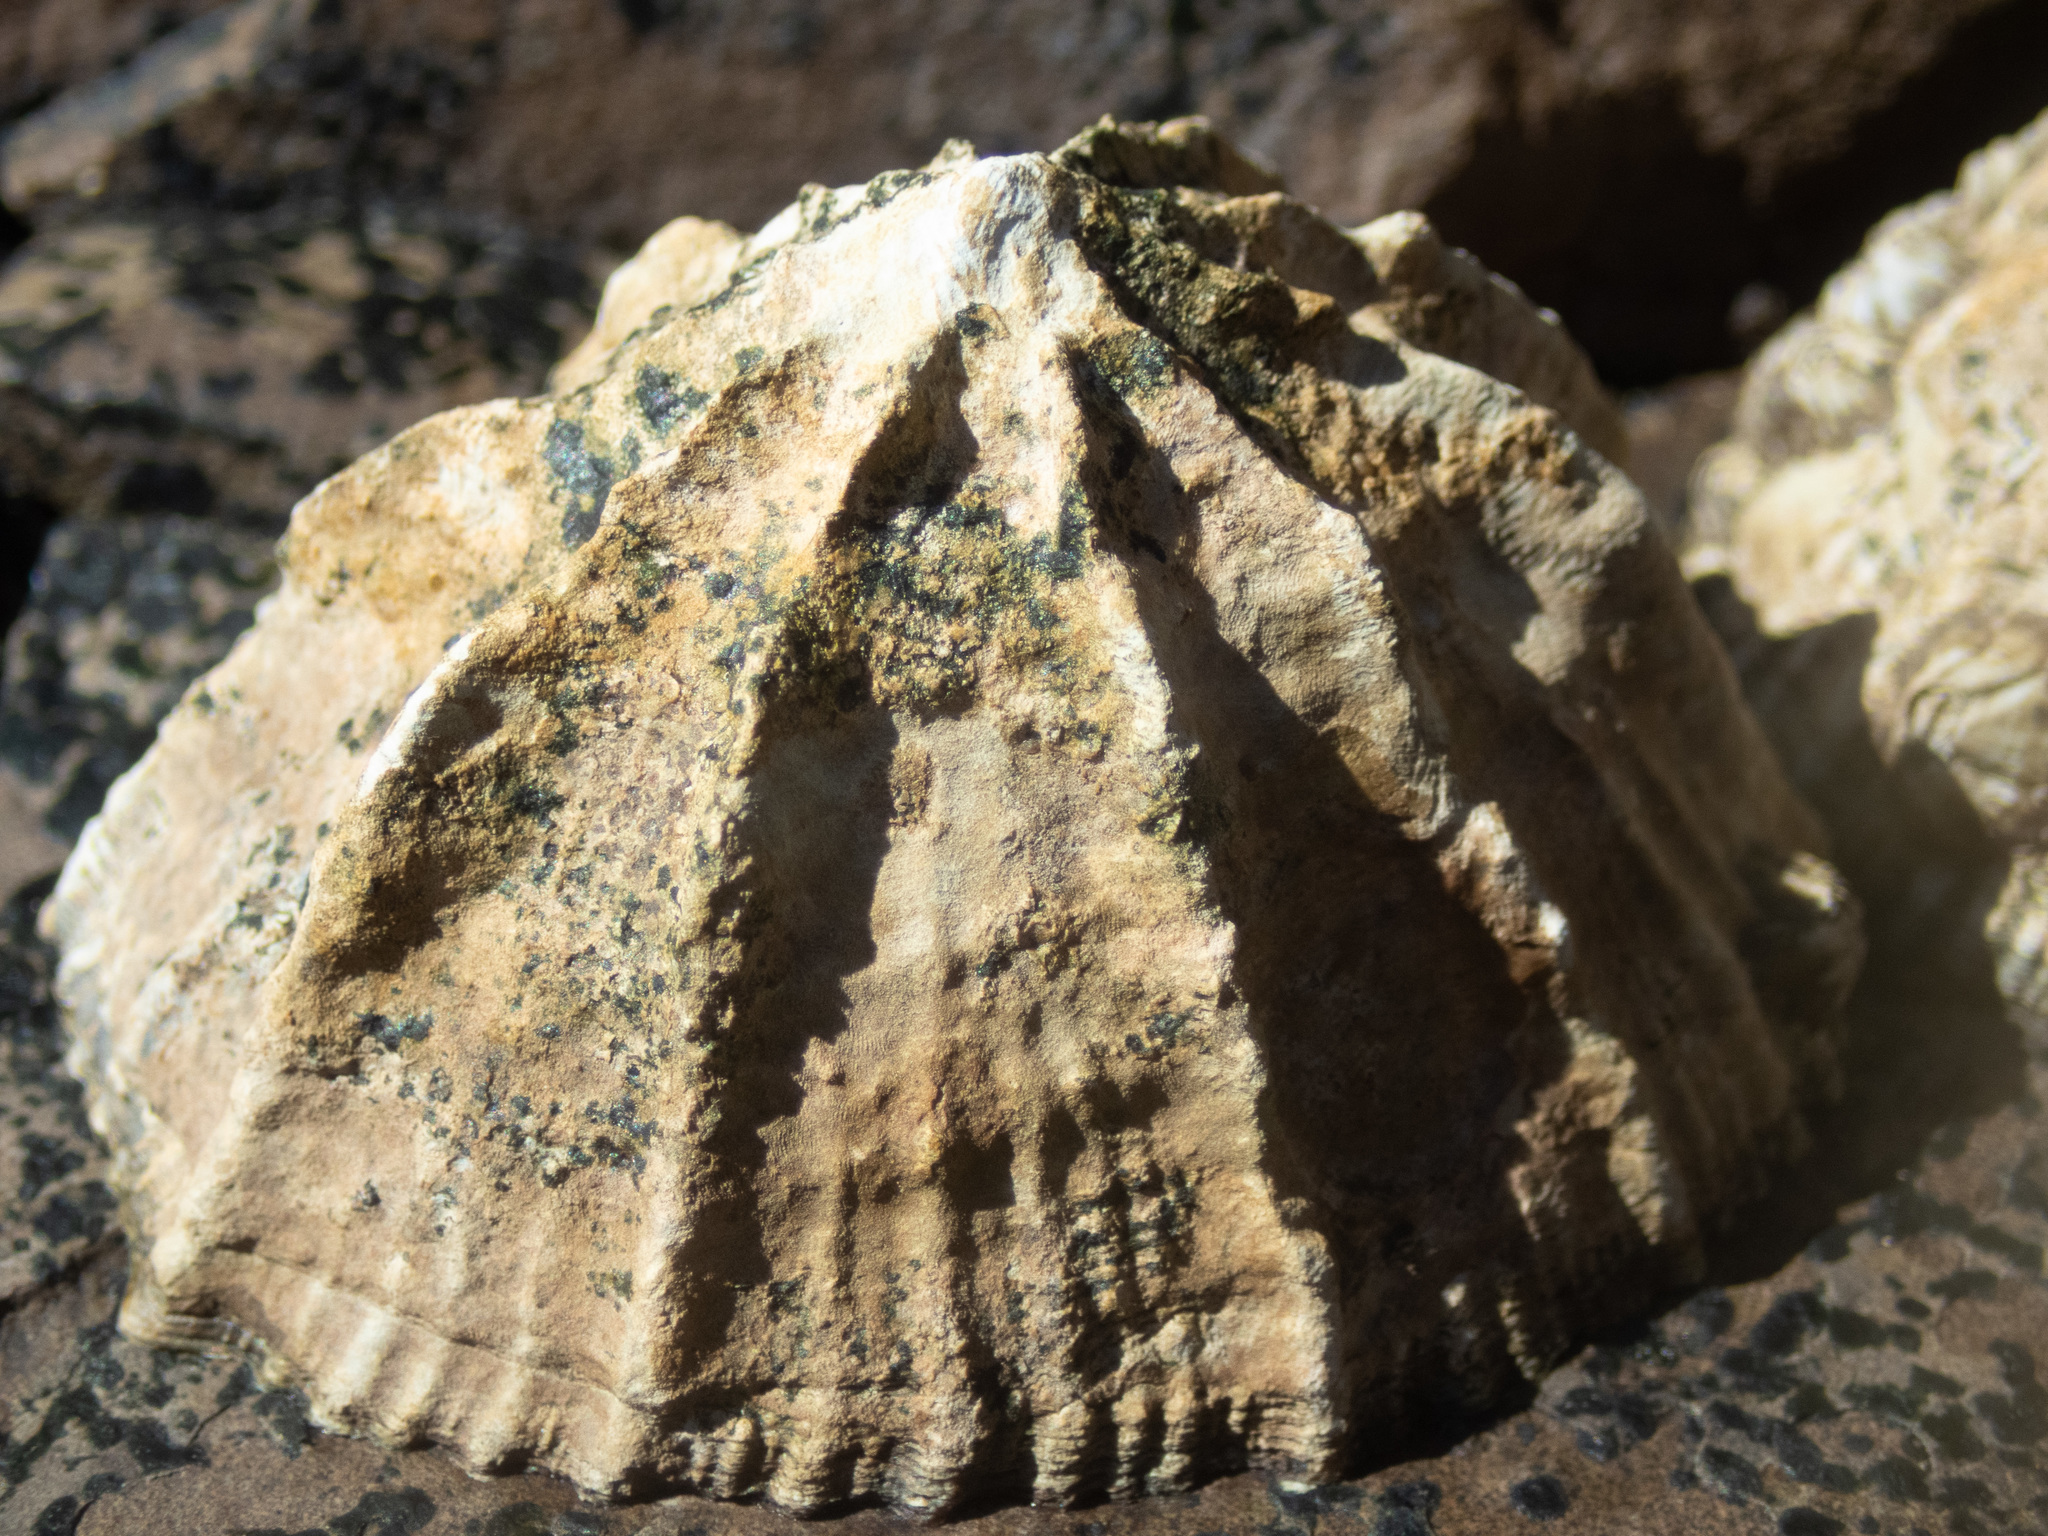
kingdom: Animalia
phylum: Mollusca
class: Gastropoda
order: Siphonariida
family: Siphonariidae
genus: Siphonaria
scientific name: Siphonaria gigas
